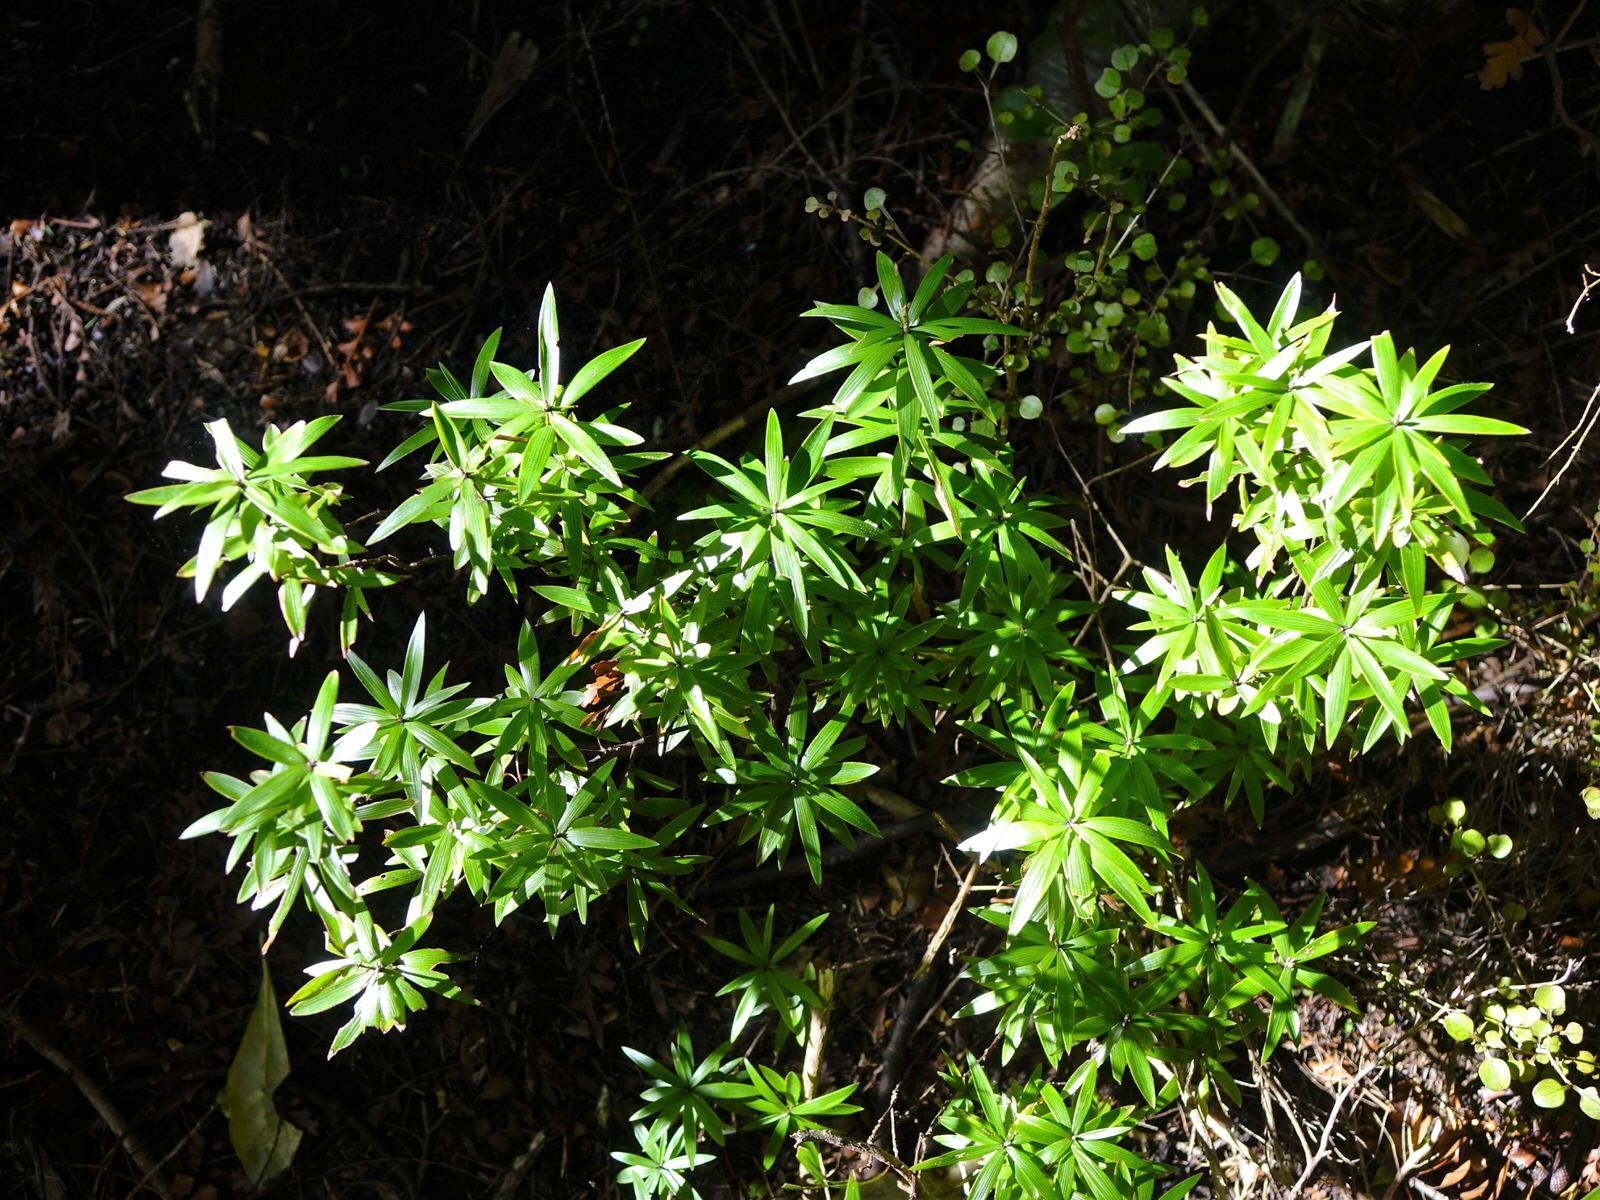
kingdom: Plantae
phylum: Tracheophyta
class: Magnoliopsida
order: Ericales
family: Ericaceae
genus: Leucopogon
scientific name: Leucopogon fasciculatus
